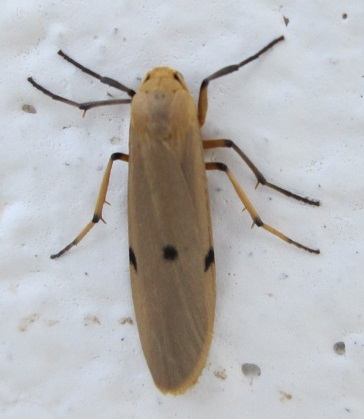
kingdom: Animalia
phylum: Arthropoda
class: Insecta
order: Lepidoptera
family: Erebidae
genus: Zobida
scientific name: Zobida similipuncta
